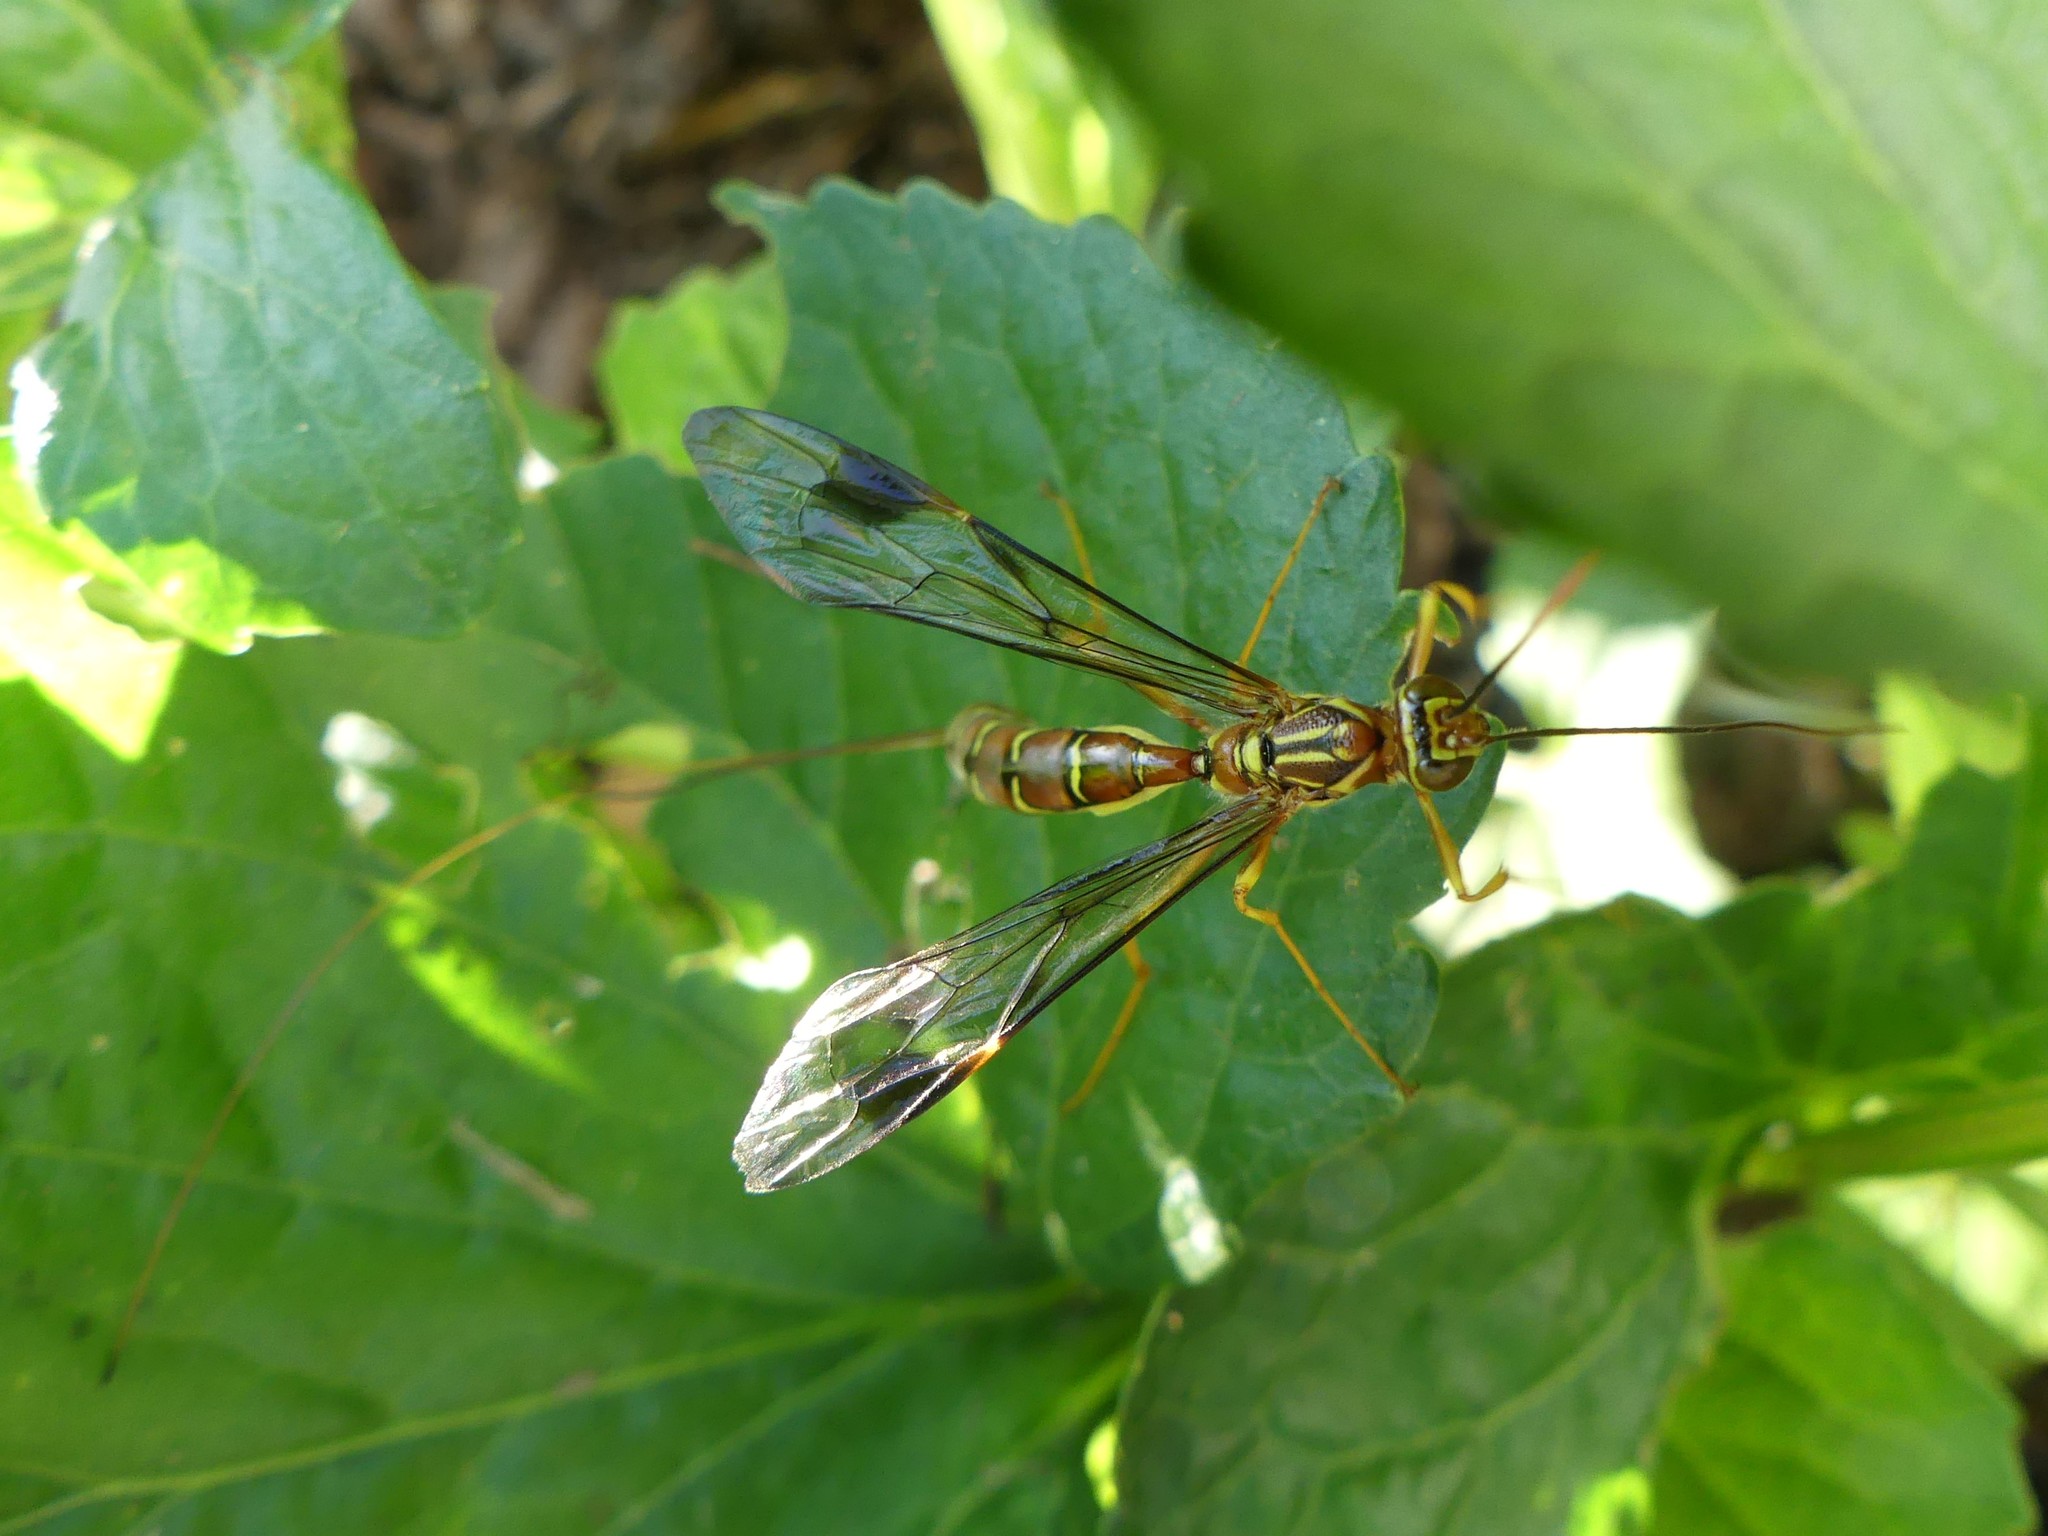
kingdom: Animalia
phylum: Arthropoda
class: Insecta
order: Hymenoptera
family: Ichneumonidae
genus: Megarhyssa
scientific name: Megarhyssa macrura
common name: Long-tailed giant ichneumonid wasp
